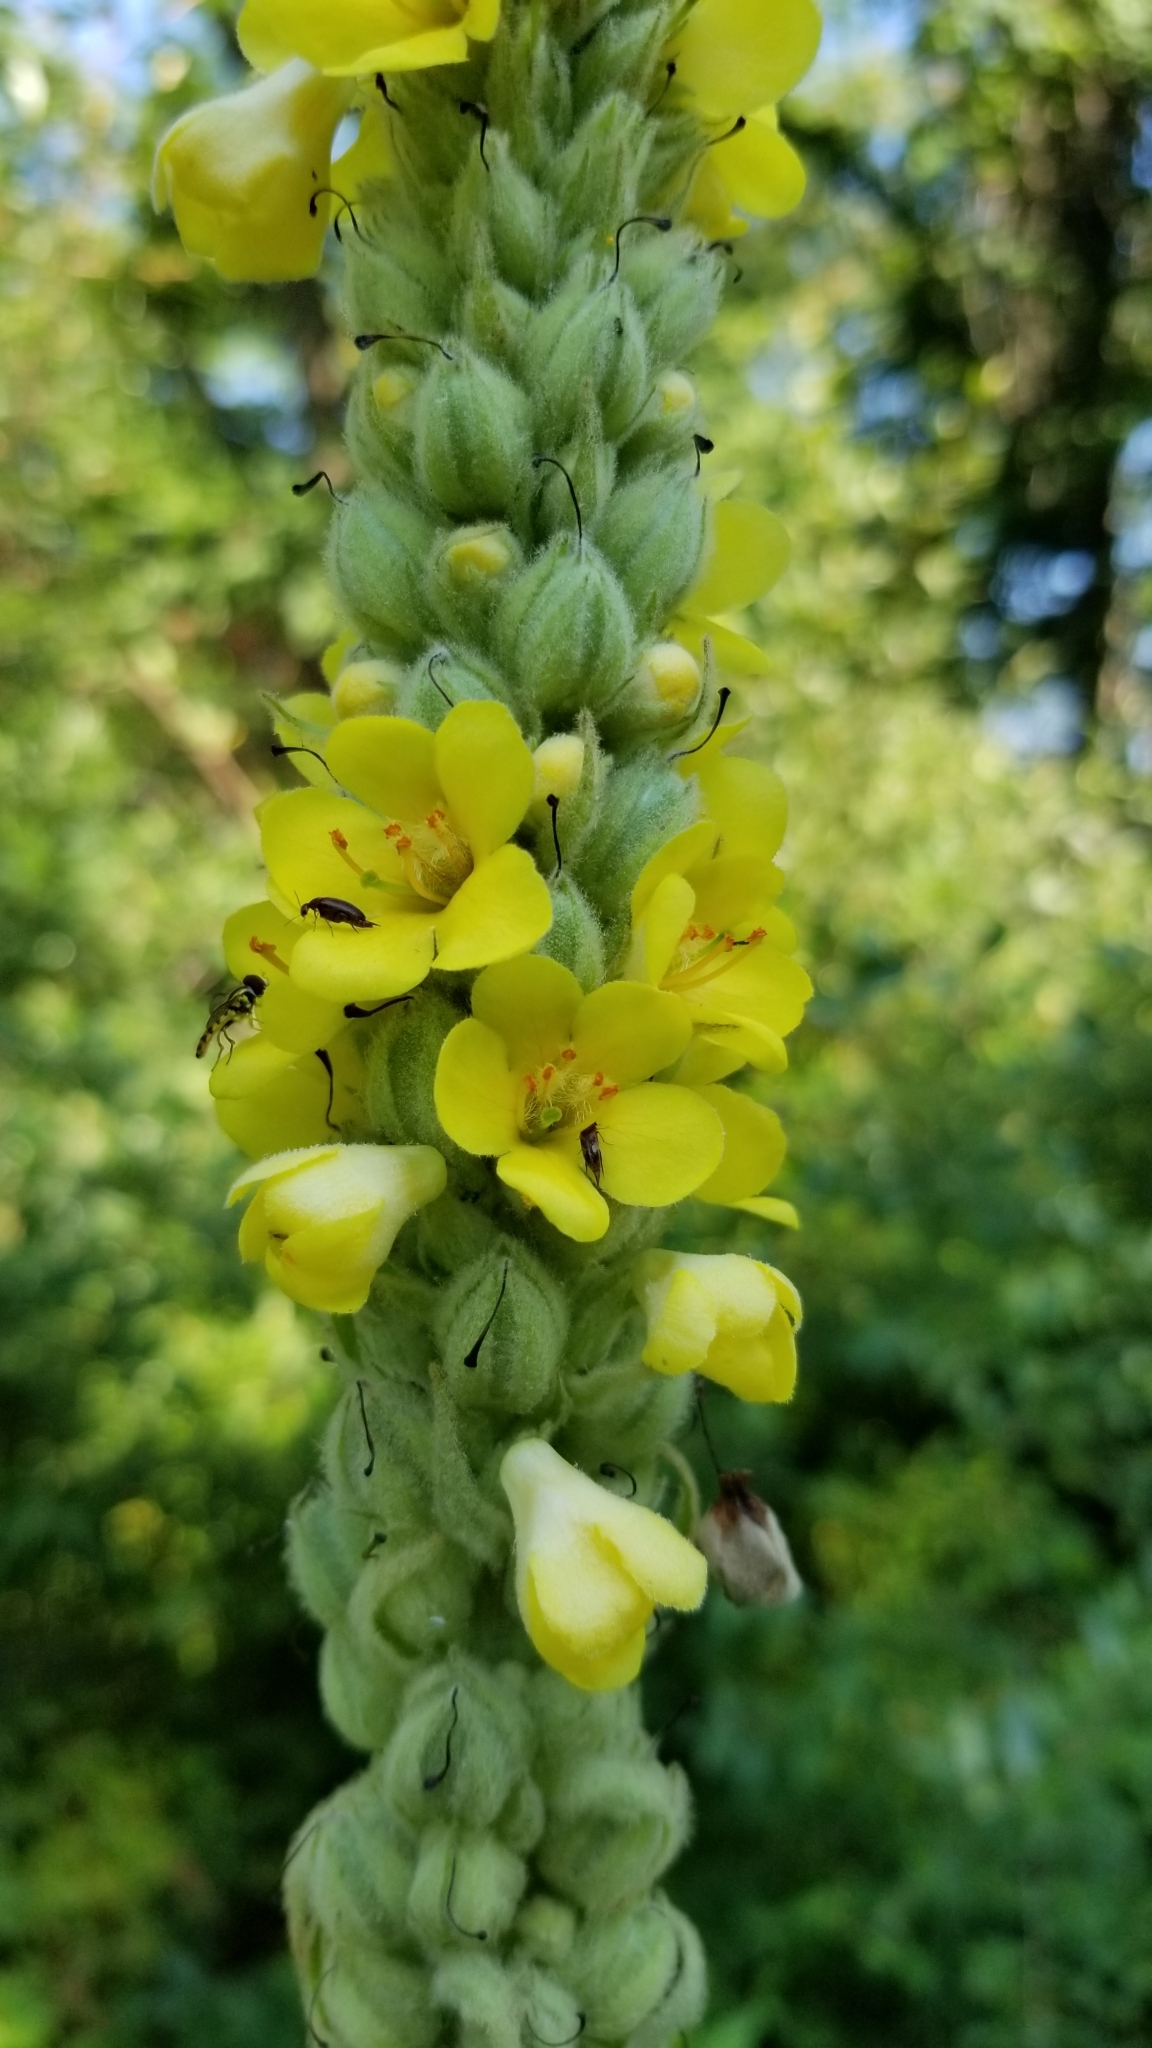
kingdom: Plantae
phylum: Tracheophyta
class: Magnoliopsida
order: Lamiales
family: Scrophulariaceae
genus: Verbascum
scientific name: Verbascum thapsus
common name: Common mullein
